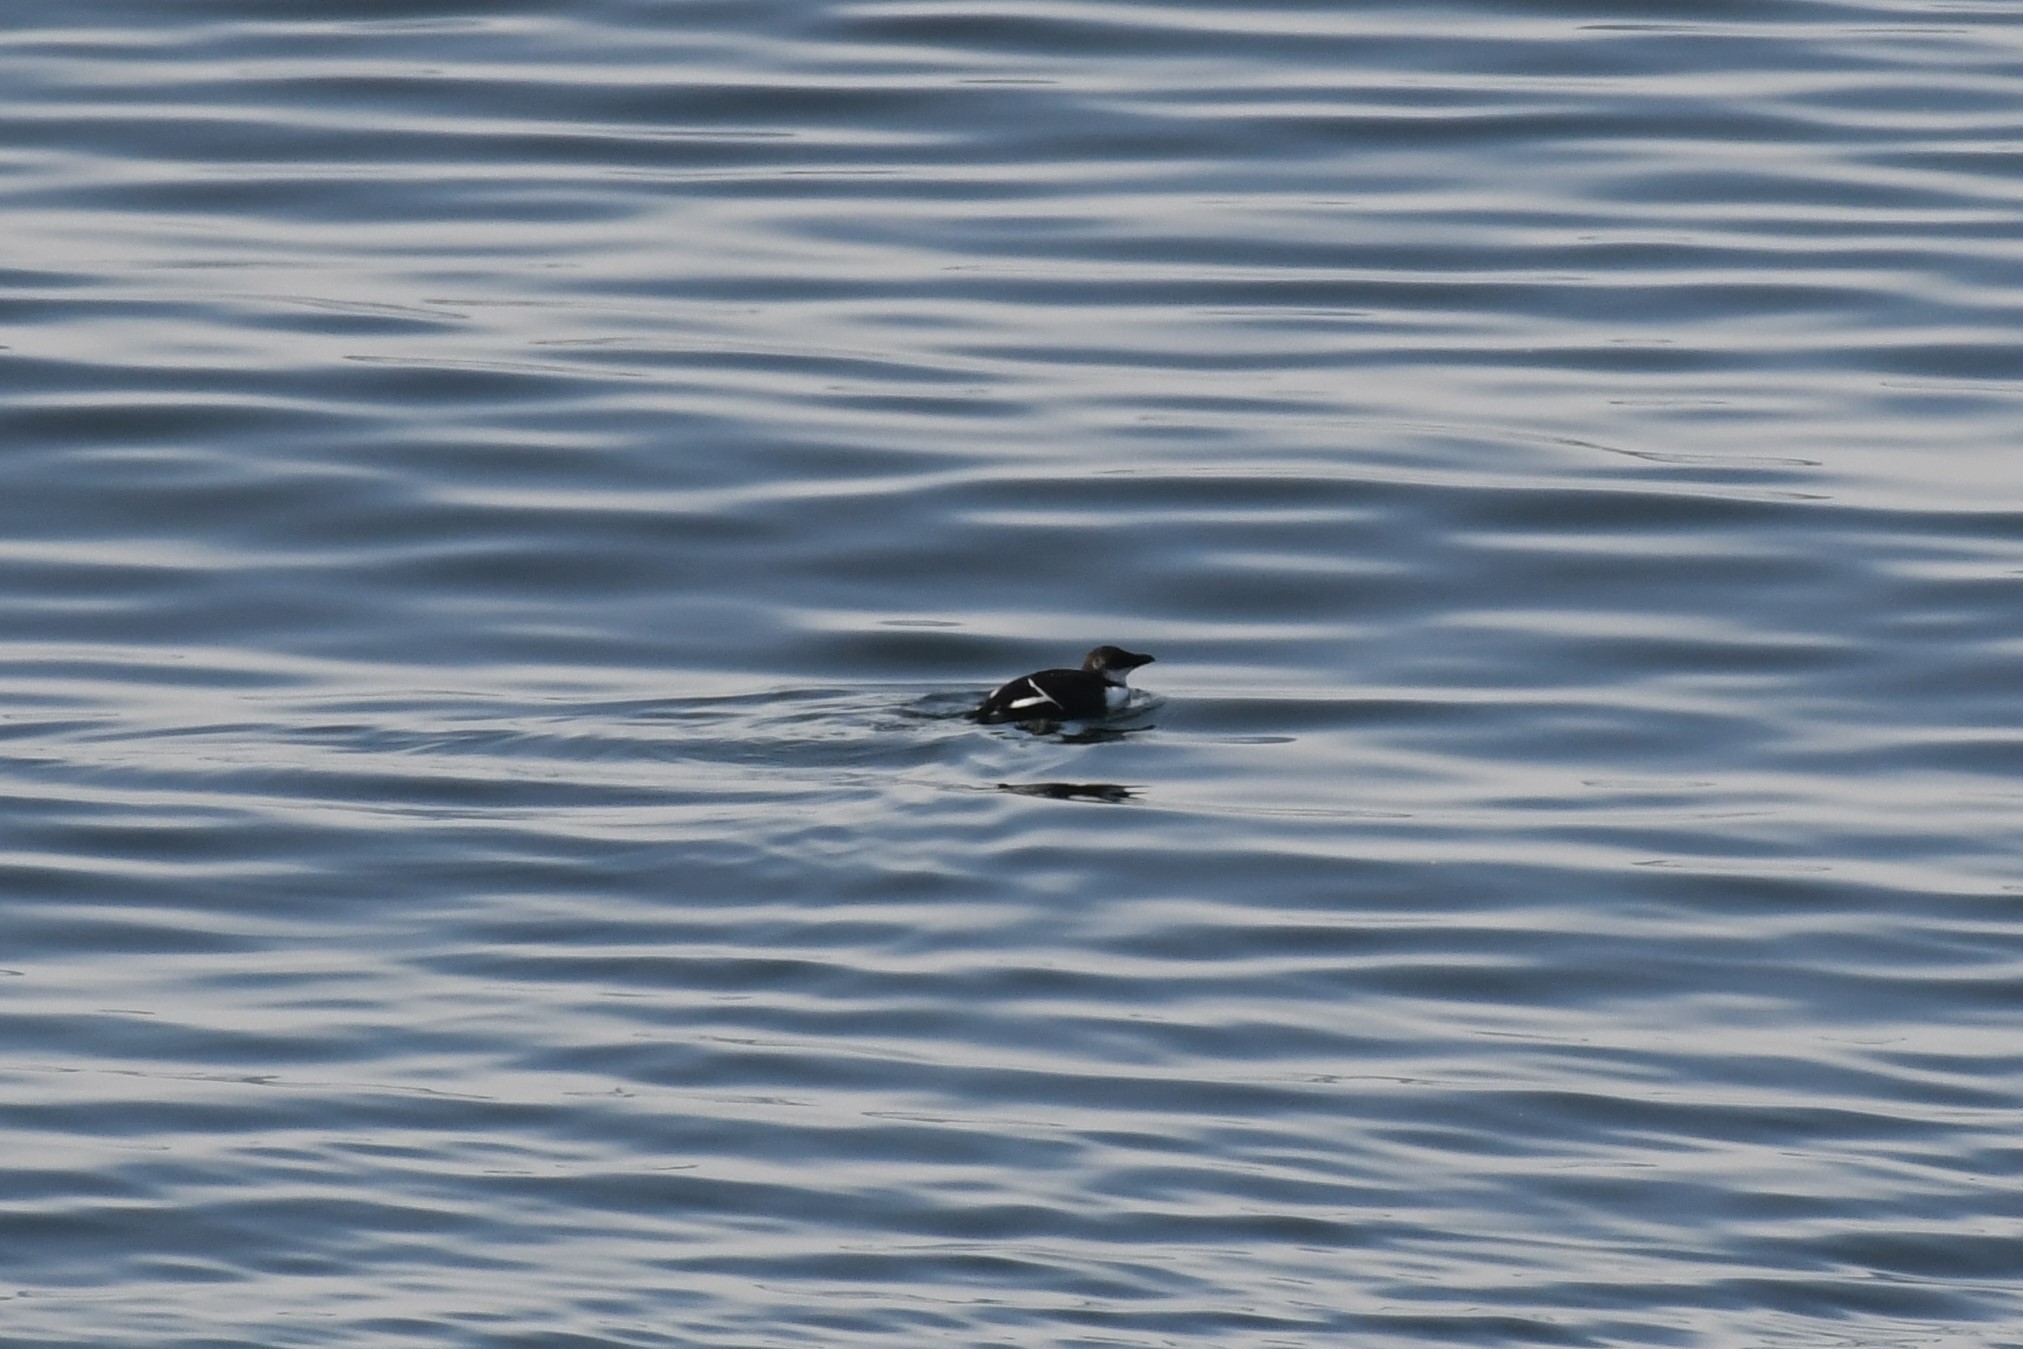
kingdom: Animalia
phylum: Chordata
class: Aves
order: Charadriiformes
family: Alcidae
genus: Alca
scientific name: Alca torda
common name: Razorbill
